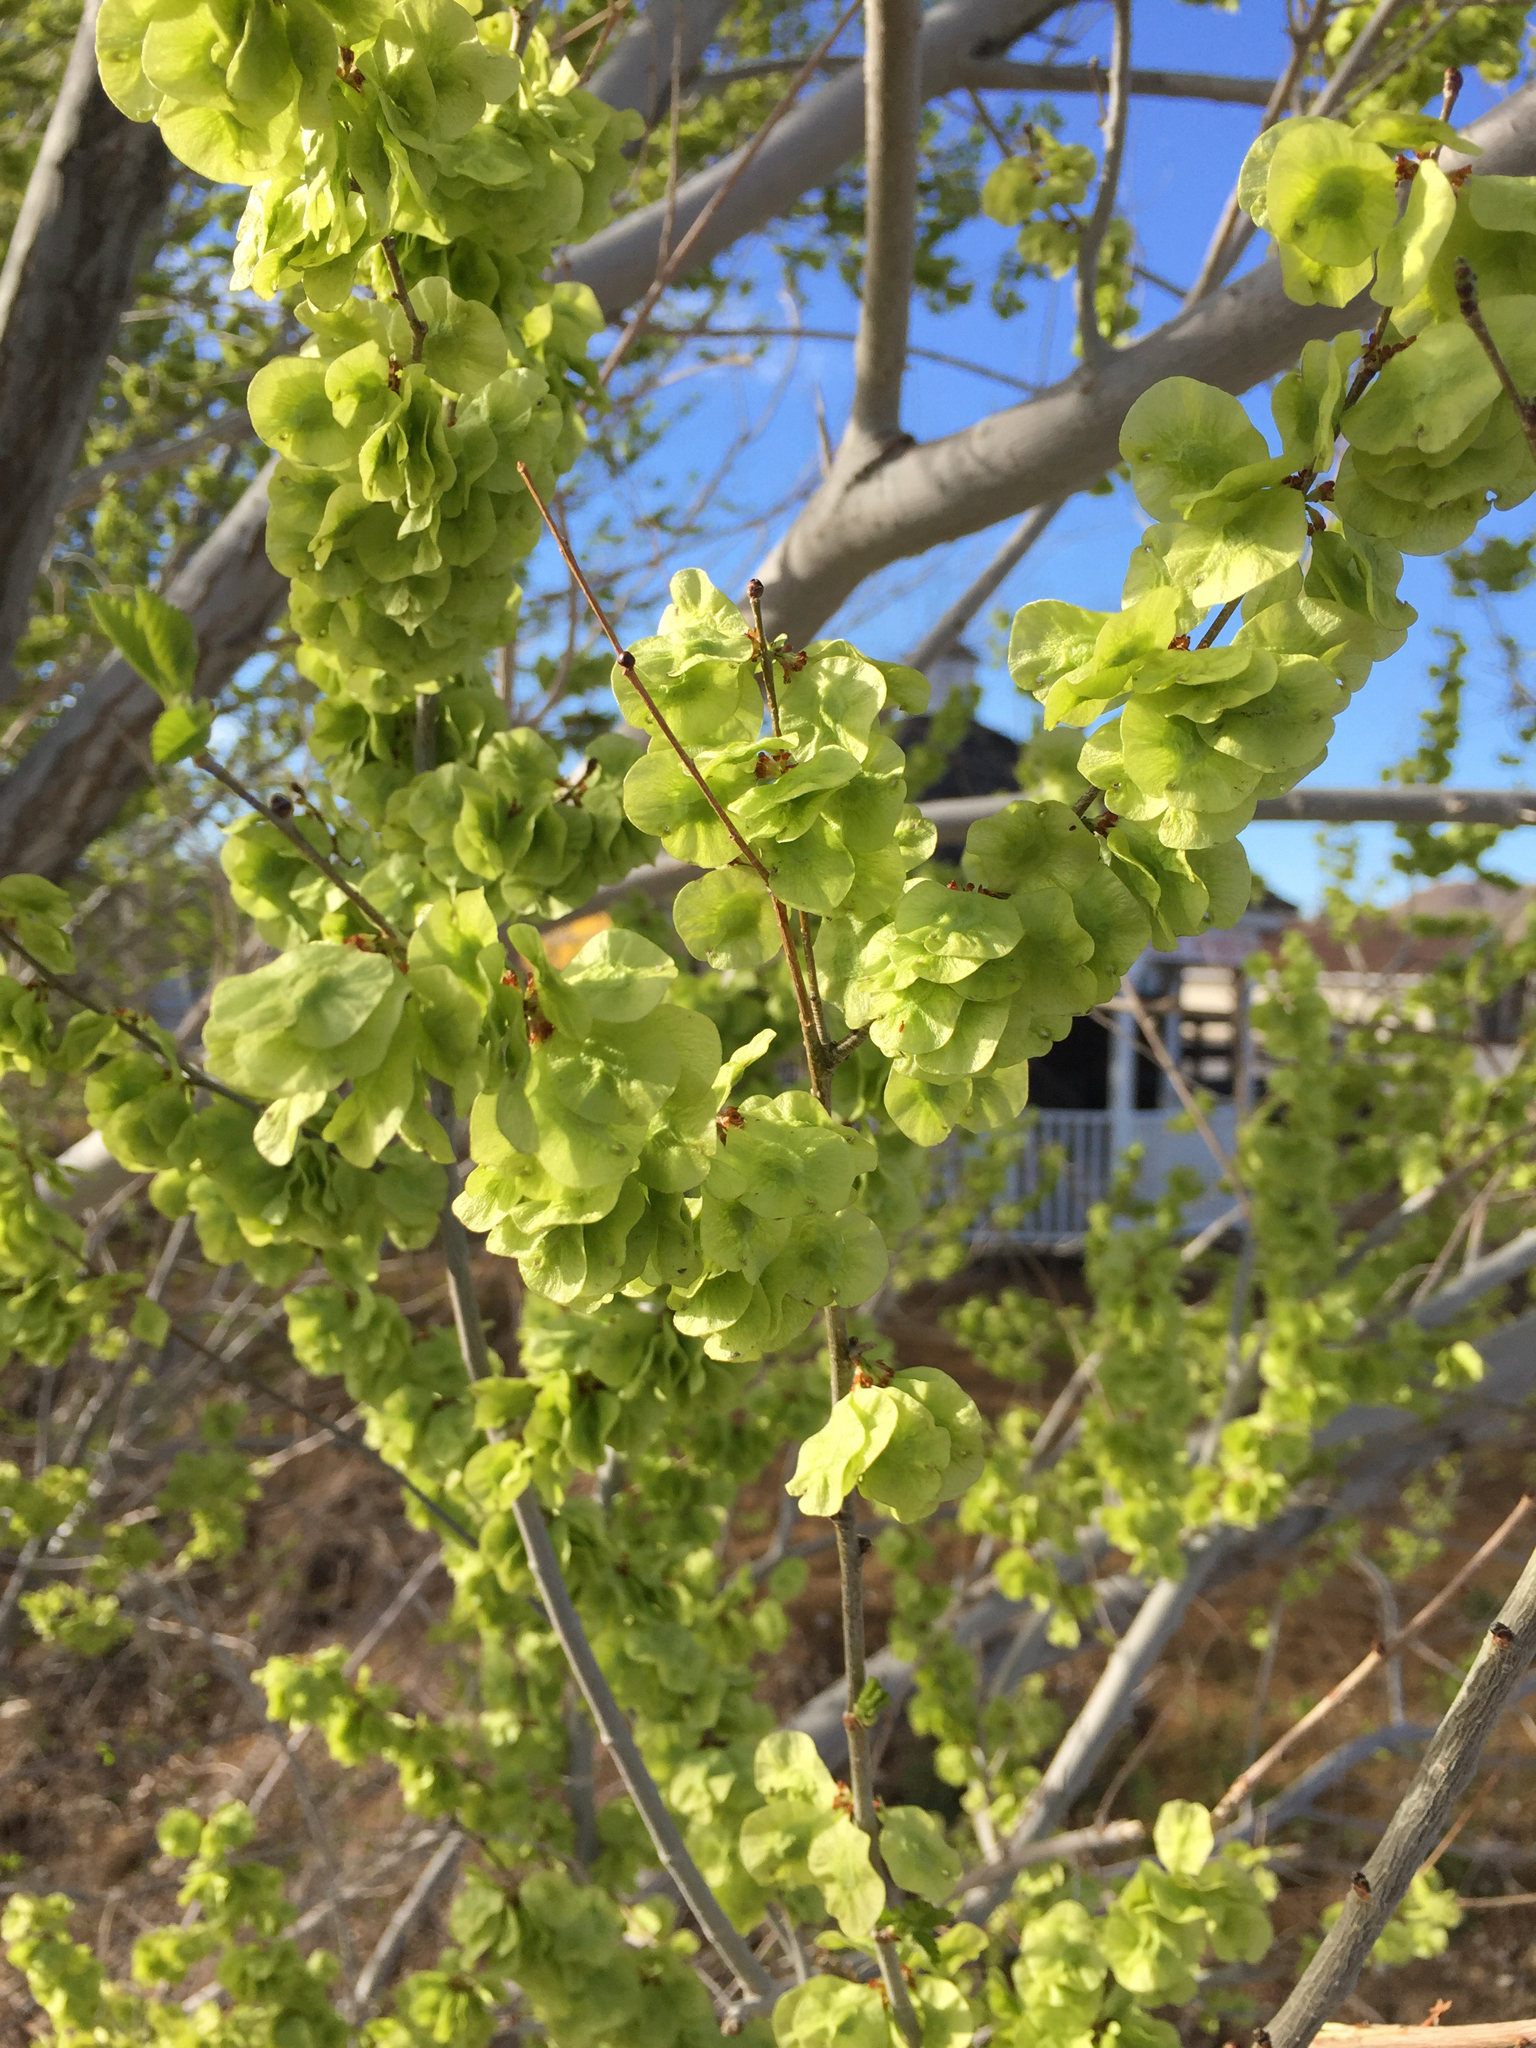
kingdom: Plantae
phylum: Tracheophyta
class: Magnoliopsida
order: Rosales
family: Ulmaceae
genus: Ulmus
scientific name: Ulmus pumila
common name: Siberian elm
